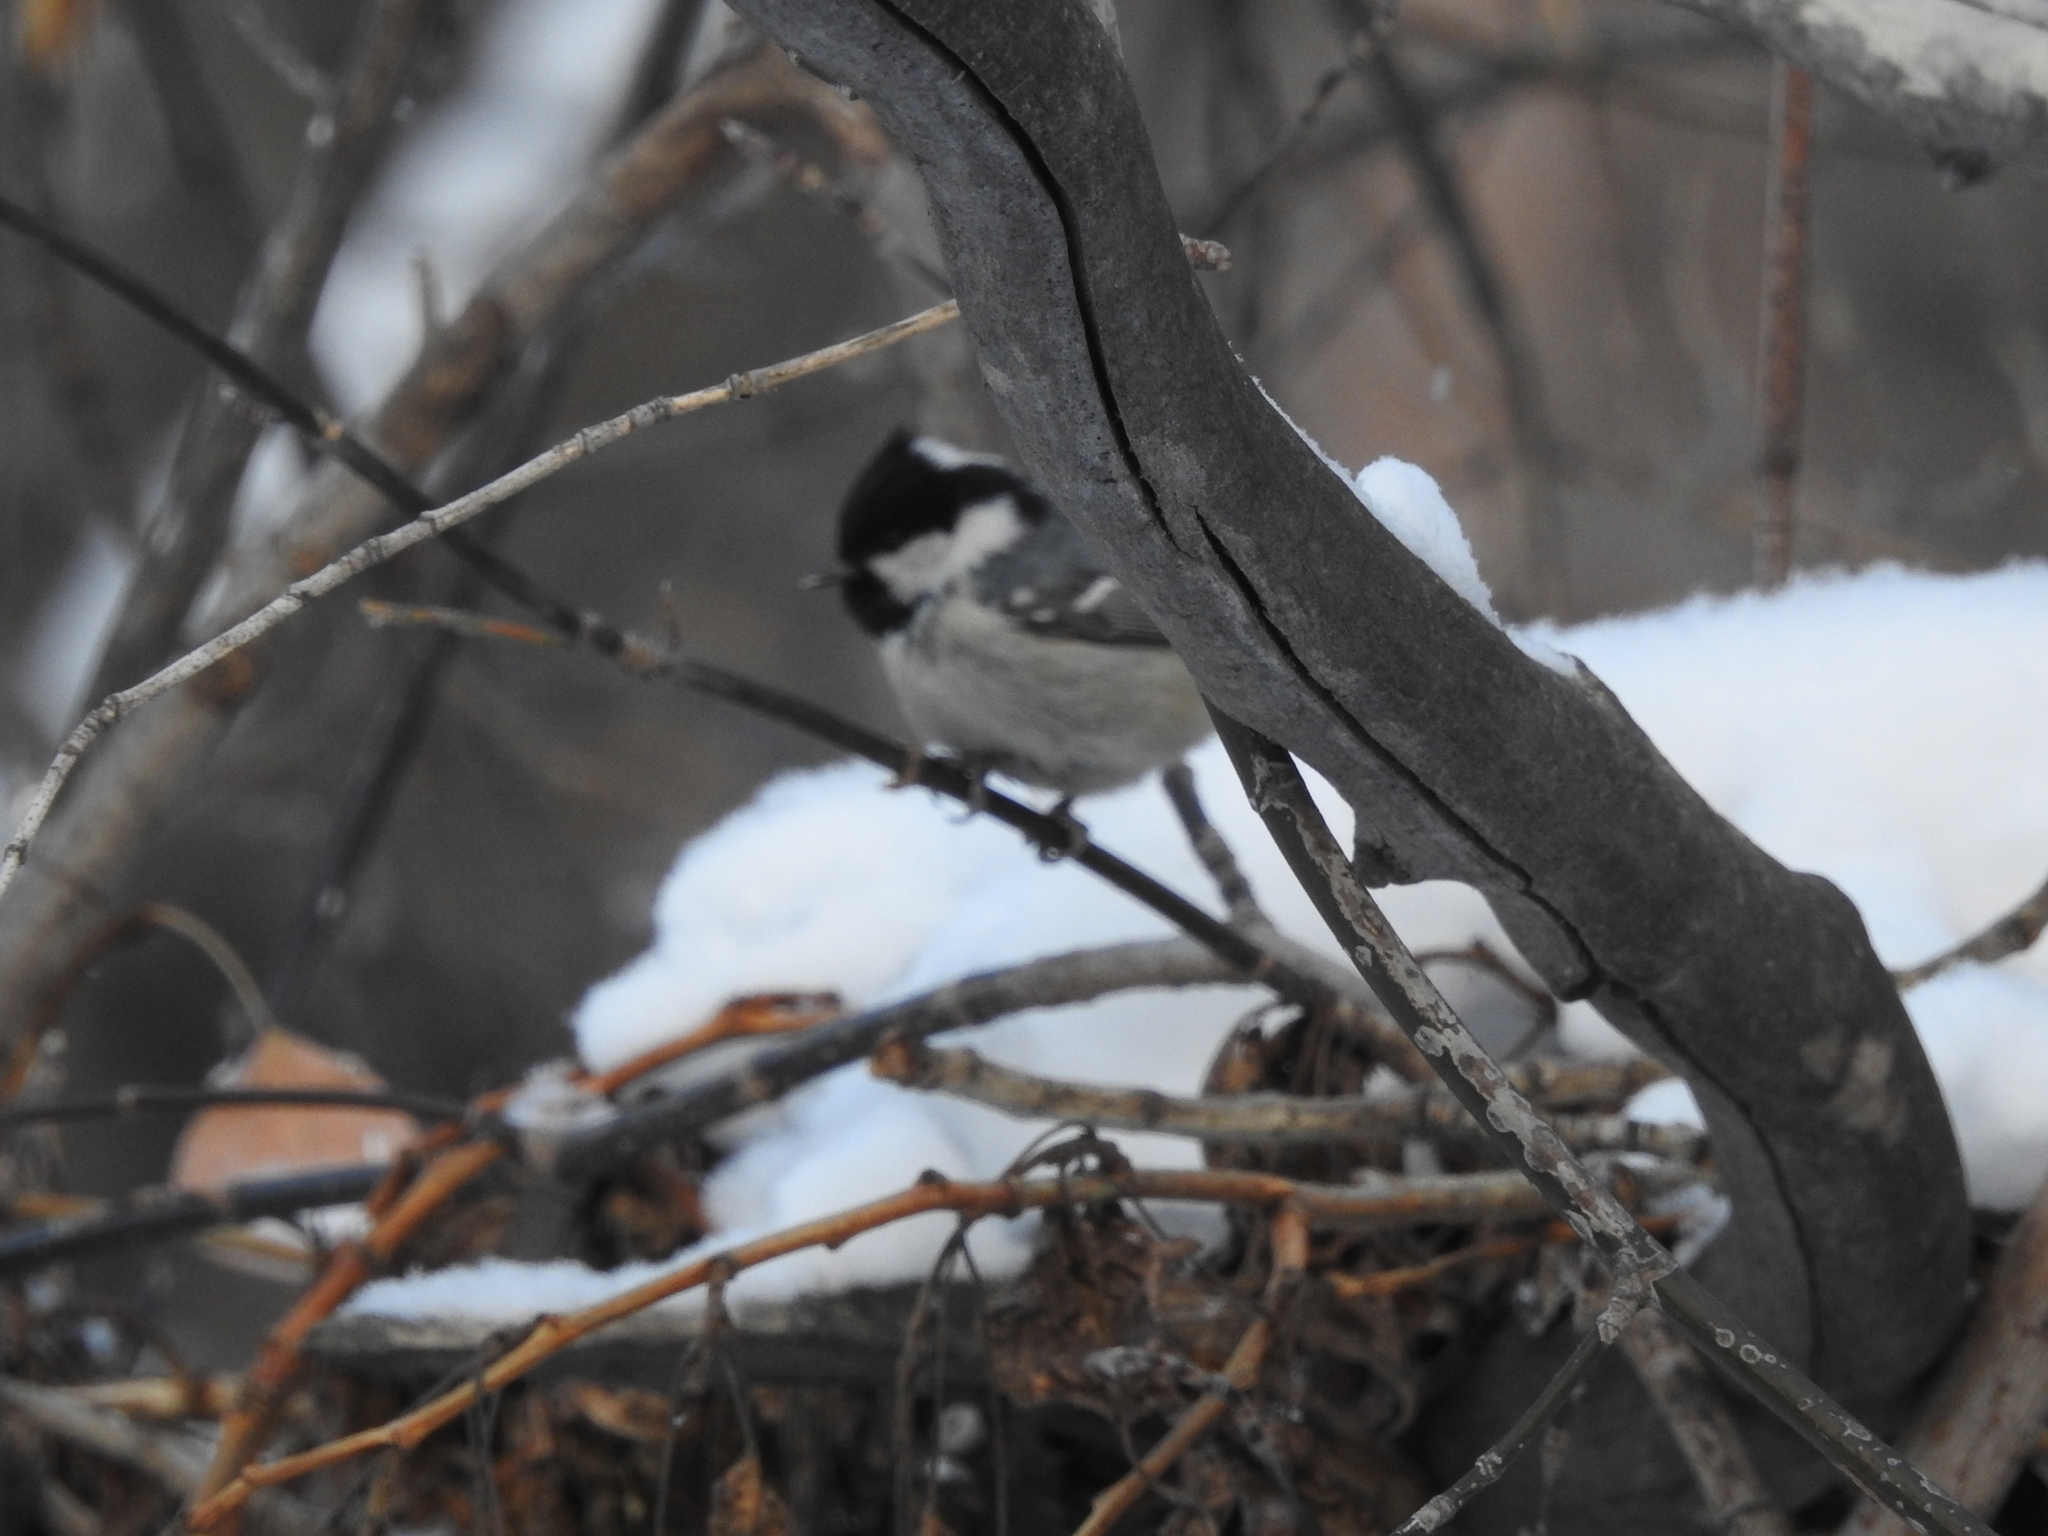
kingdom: Animalia
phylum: Chordata
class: Aves
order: Passeriformes
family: Paridae
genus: Periparus
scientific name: Periparus ater
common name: Coal tit
